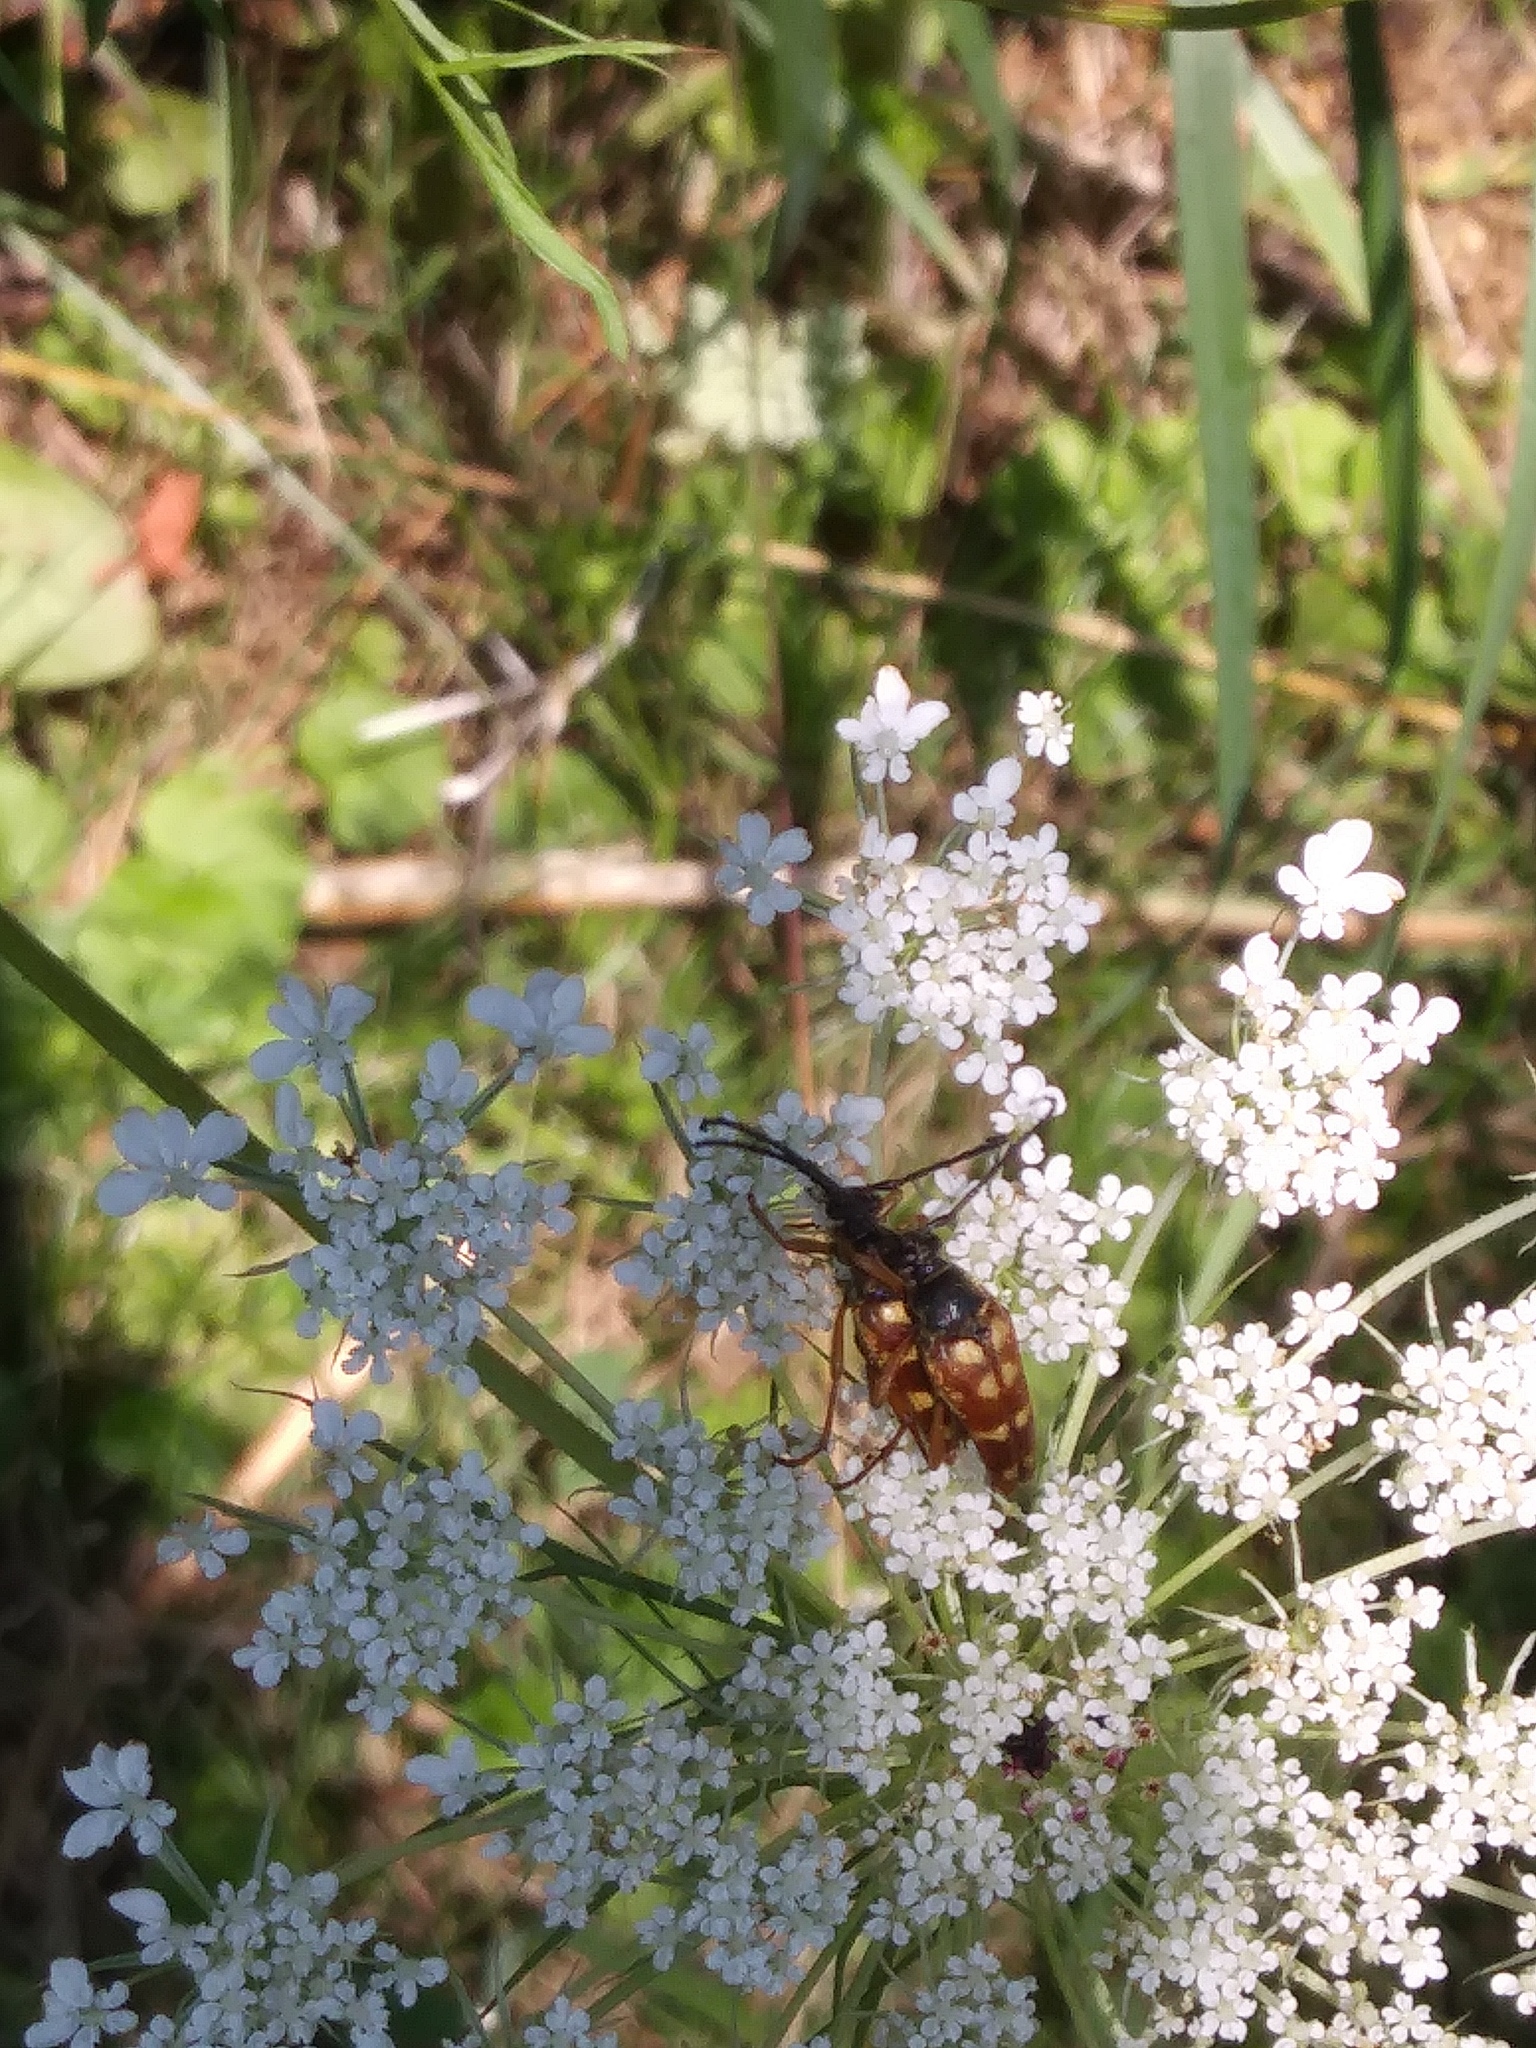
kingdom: Animalia
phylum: Arthropoda
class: Insecta
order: Coleoptera
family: Cerambycidae
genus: Typocerus
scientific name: Typocerus velutinus
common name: Banded longhorn beetle
